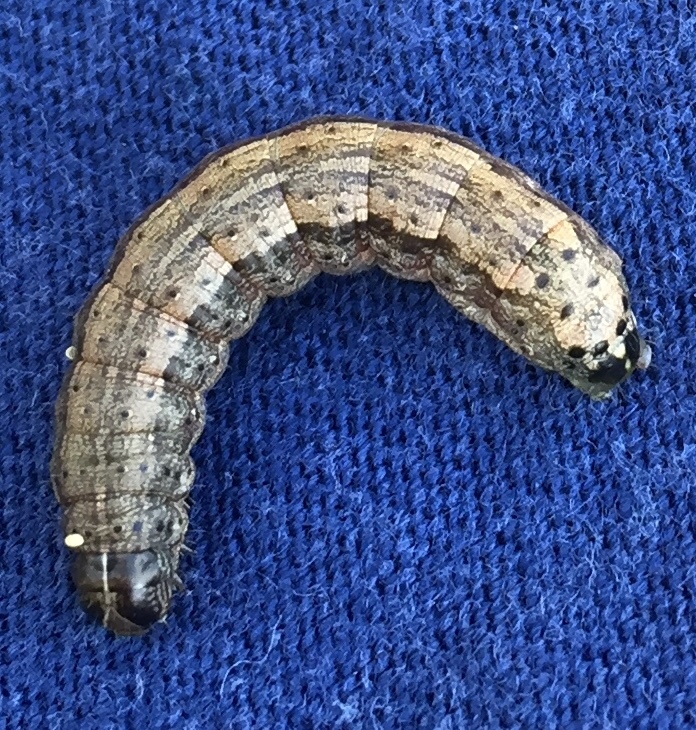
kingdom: Animalia
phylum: Arthropoda
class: Insecta
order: Lepidoptera
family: Noctuidae
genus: Spodoptera
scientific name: Spodoptera frugiperda
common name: Fall armyworm
